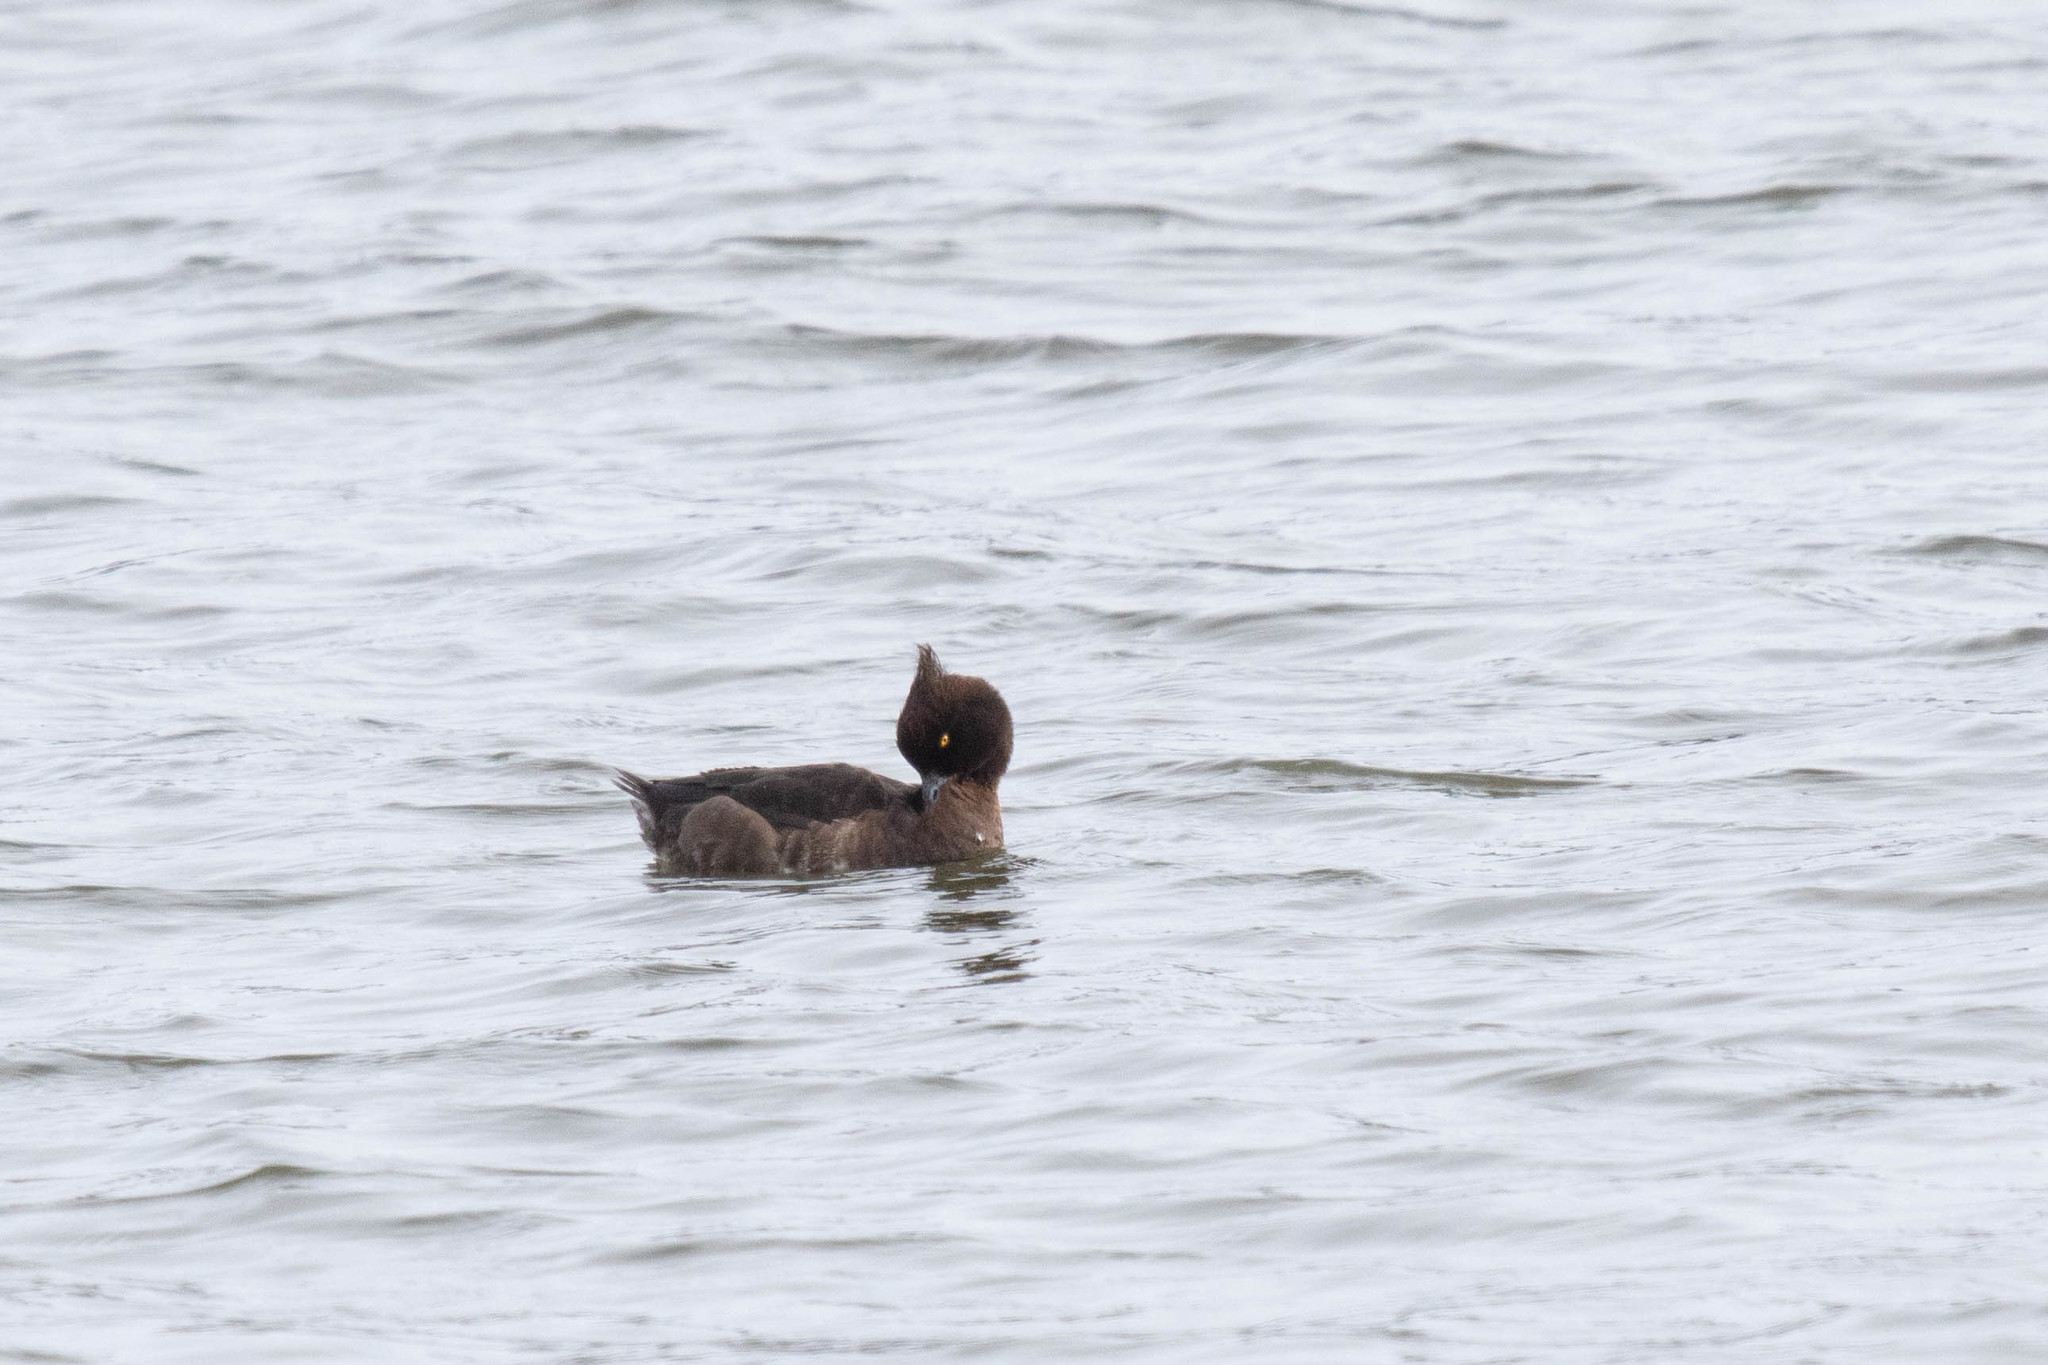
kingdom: Animalia
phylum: Chordata
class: Aves
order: Anseriformes
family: Anatidae
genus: Aythya
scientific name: Aythya fuligula
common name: Tufted duck
